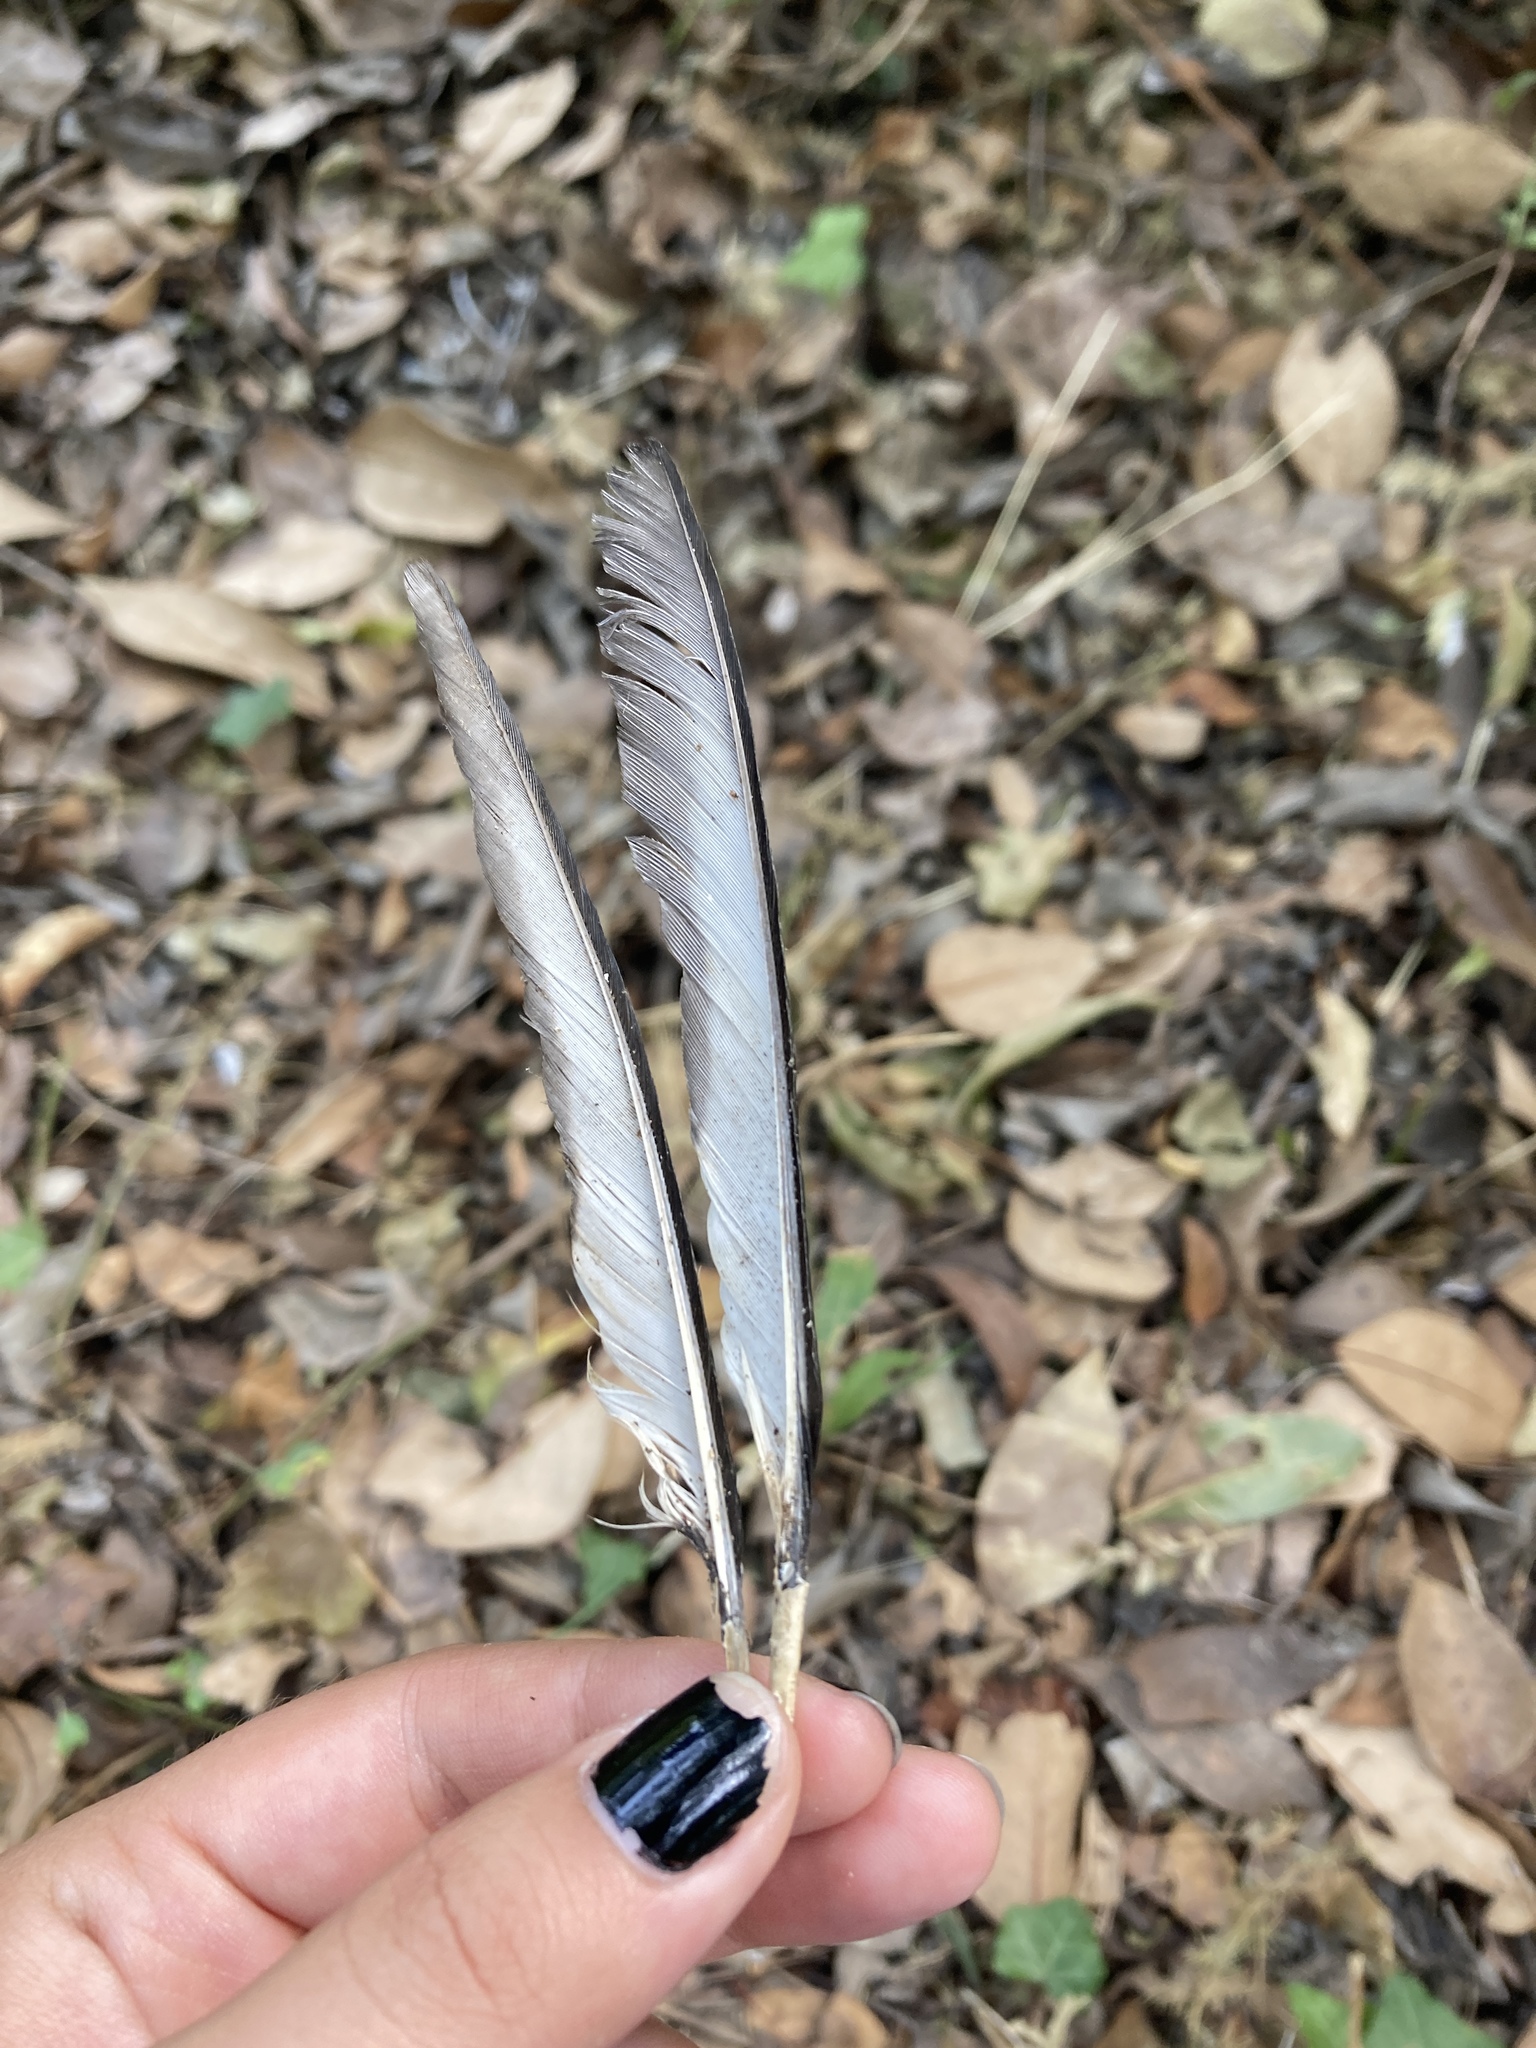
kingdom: Animalia
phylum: Chordata
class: Aves
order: Passeriformes
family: Corvidae
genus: Pica
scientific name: Pica pica
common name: Eurasian magpie
